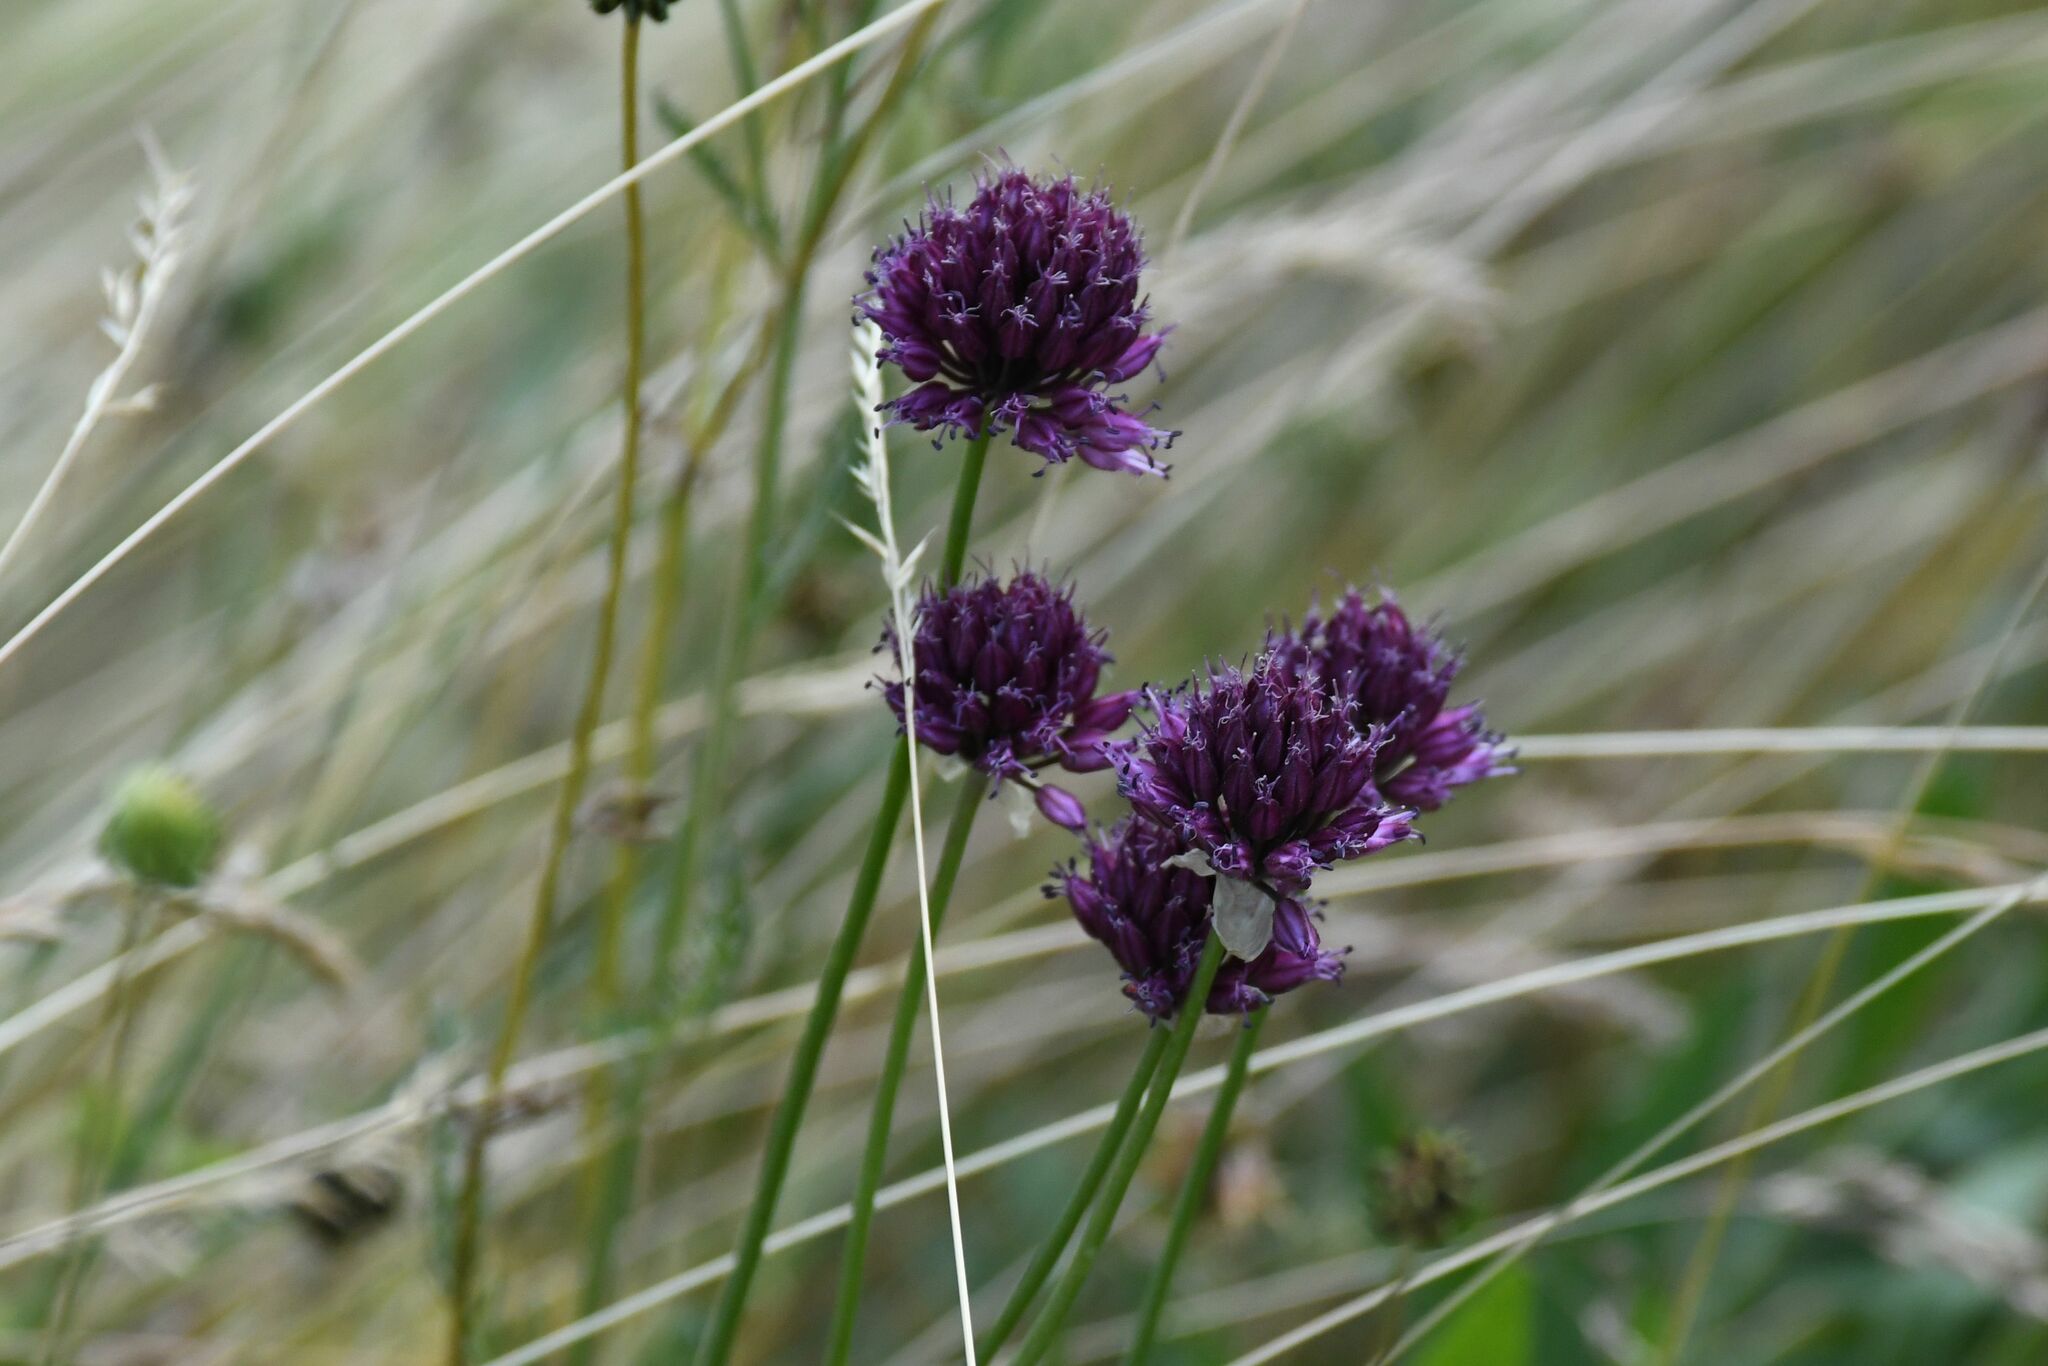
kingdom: Plantae
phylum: Tracheophyta
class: Liliopsida
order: Asparagales
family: Amaryllidaceae
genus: Allium
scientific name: Allium sphaerocephalon
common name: Round-headed leek
